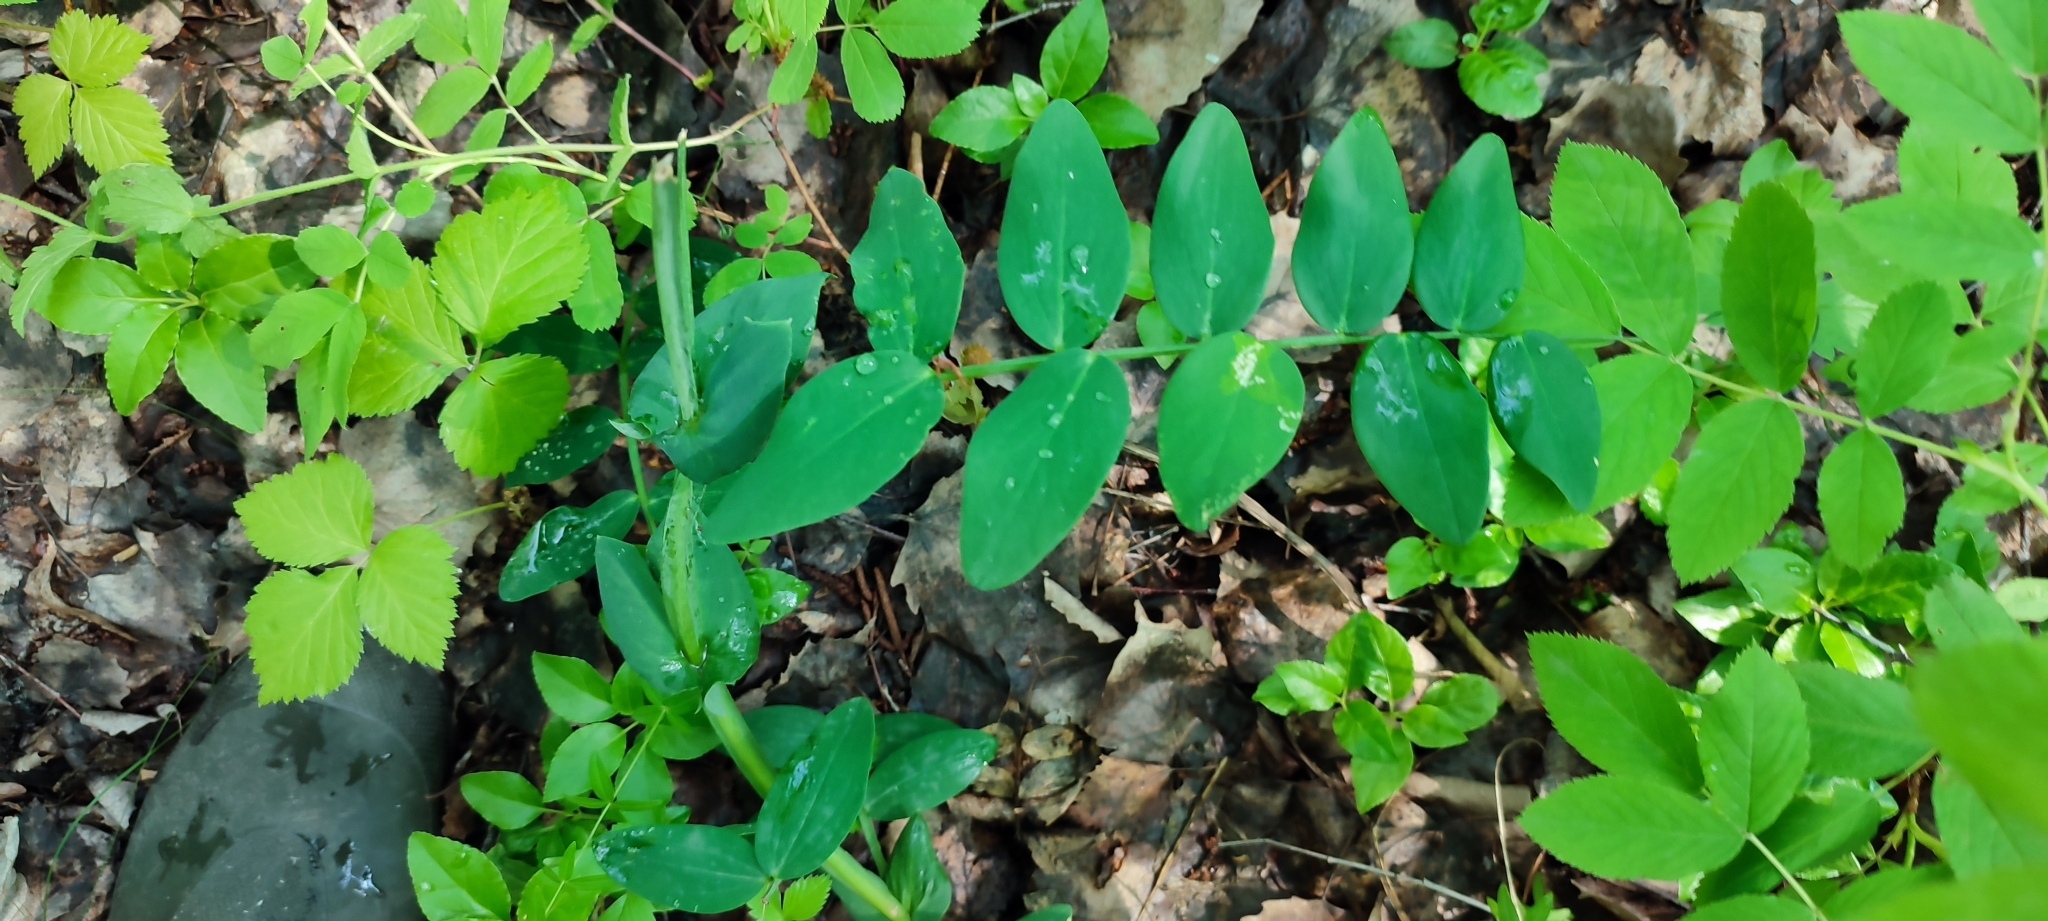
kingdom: Plantae
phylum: Tracheophyta
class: Magnoliopsida
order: Fabales
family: Fabaceae
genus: Vicia
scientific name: Vicia sepium
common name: Bush vetch
